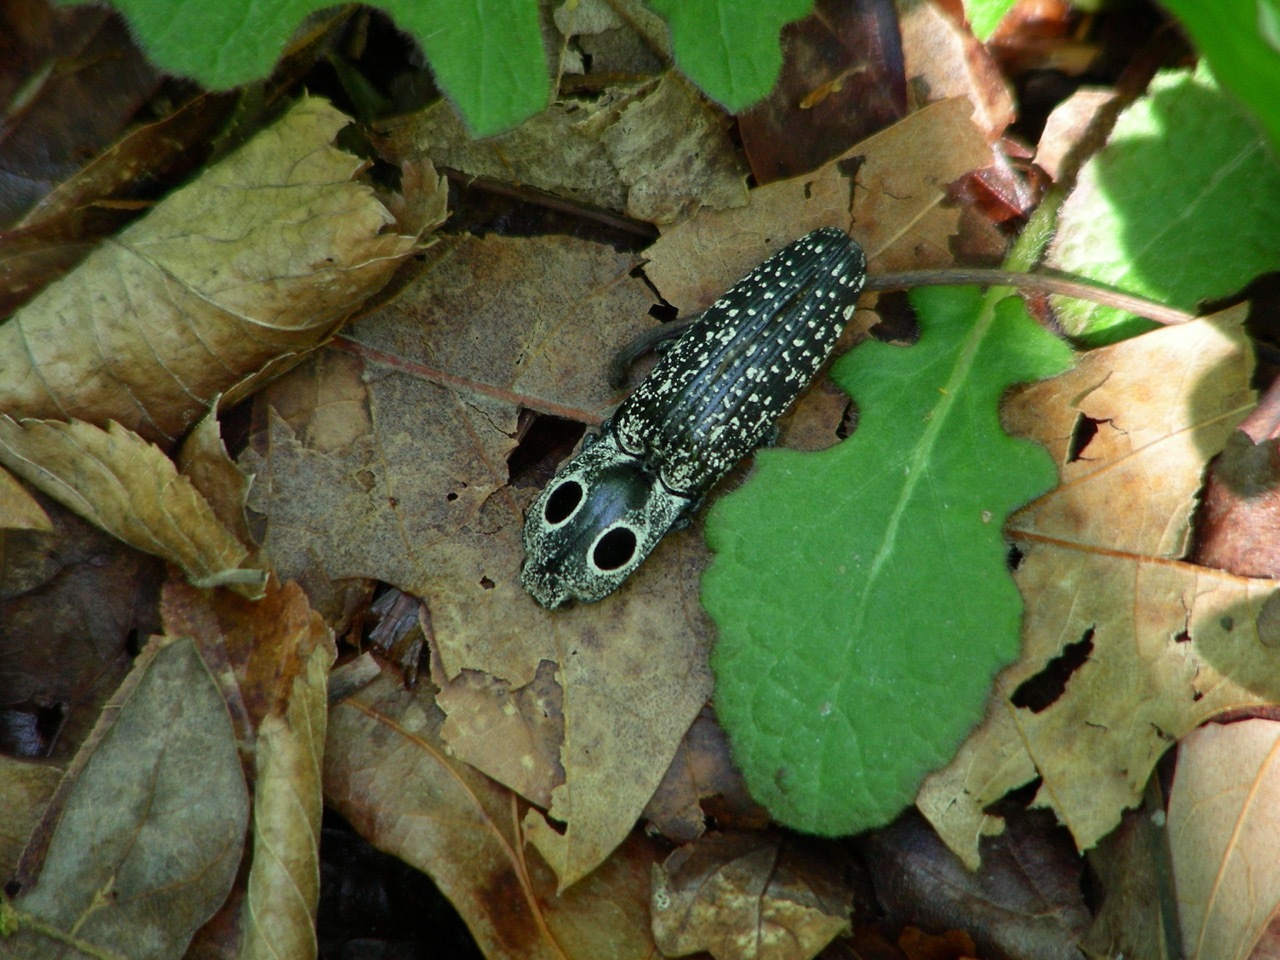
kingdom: Animalia
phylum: Arthropoda
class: Insecta
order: Coleoptera
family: Elateridae
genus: Alaus
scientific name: Alaus oculatus
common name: Eastern eyed click beetle
